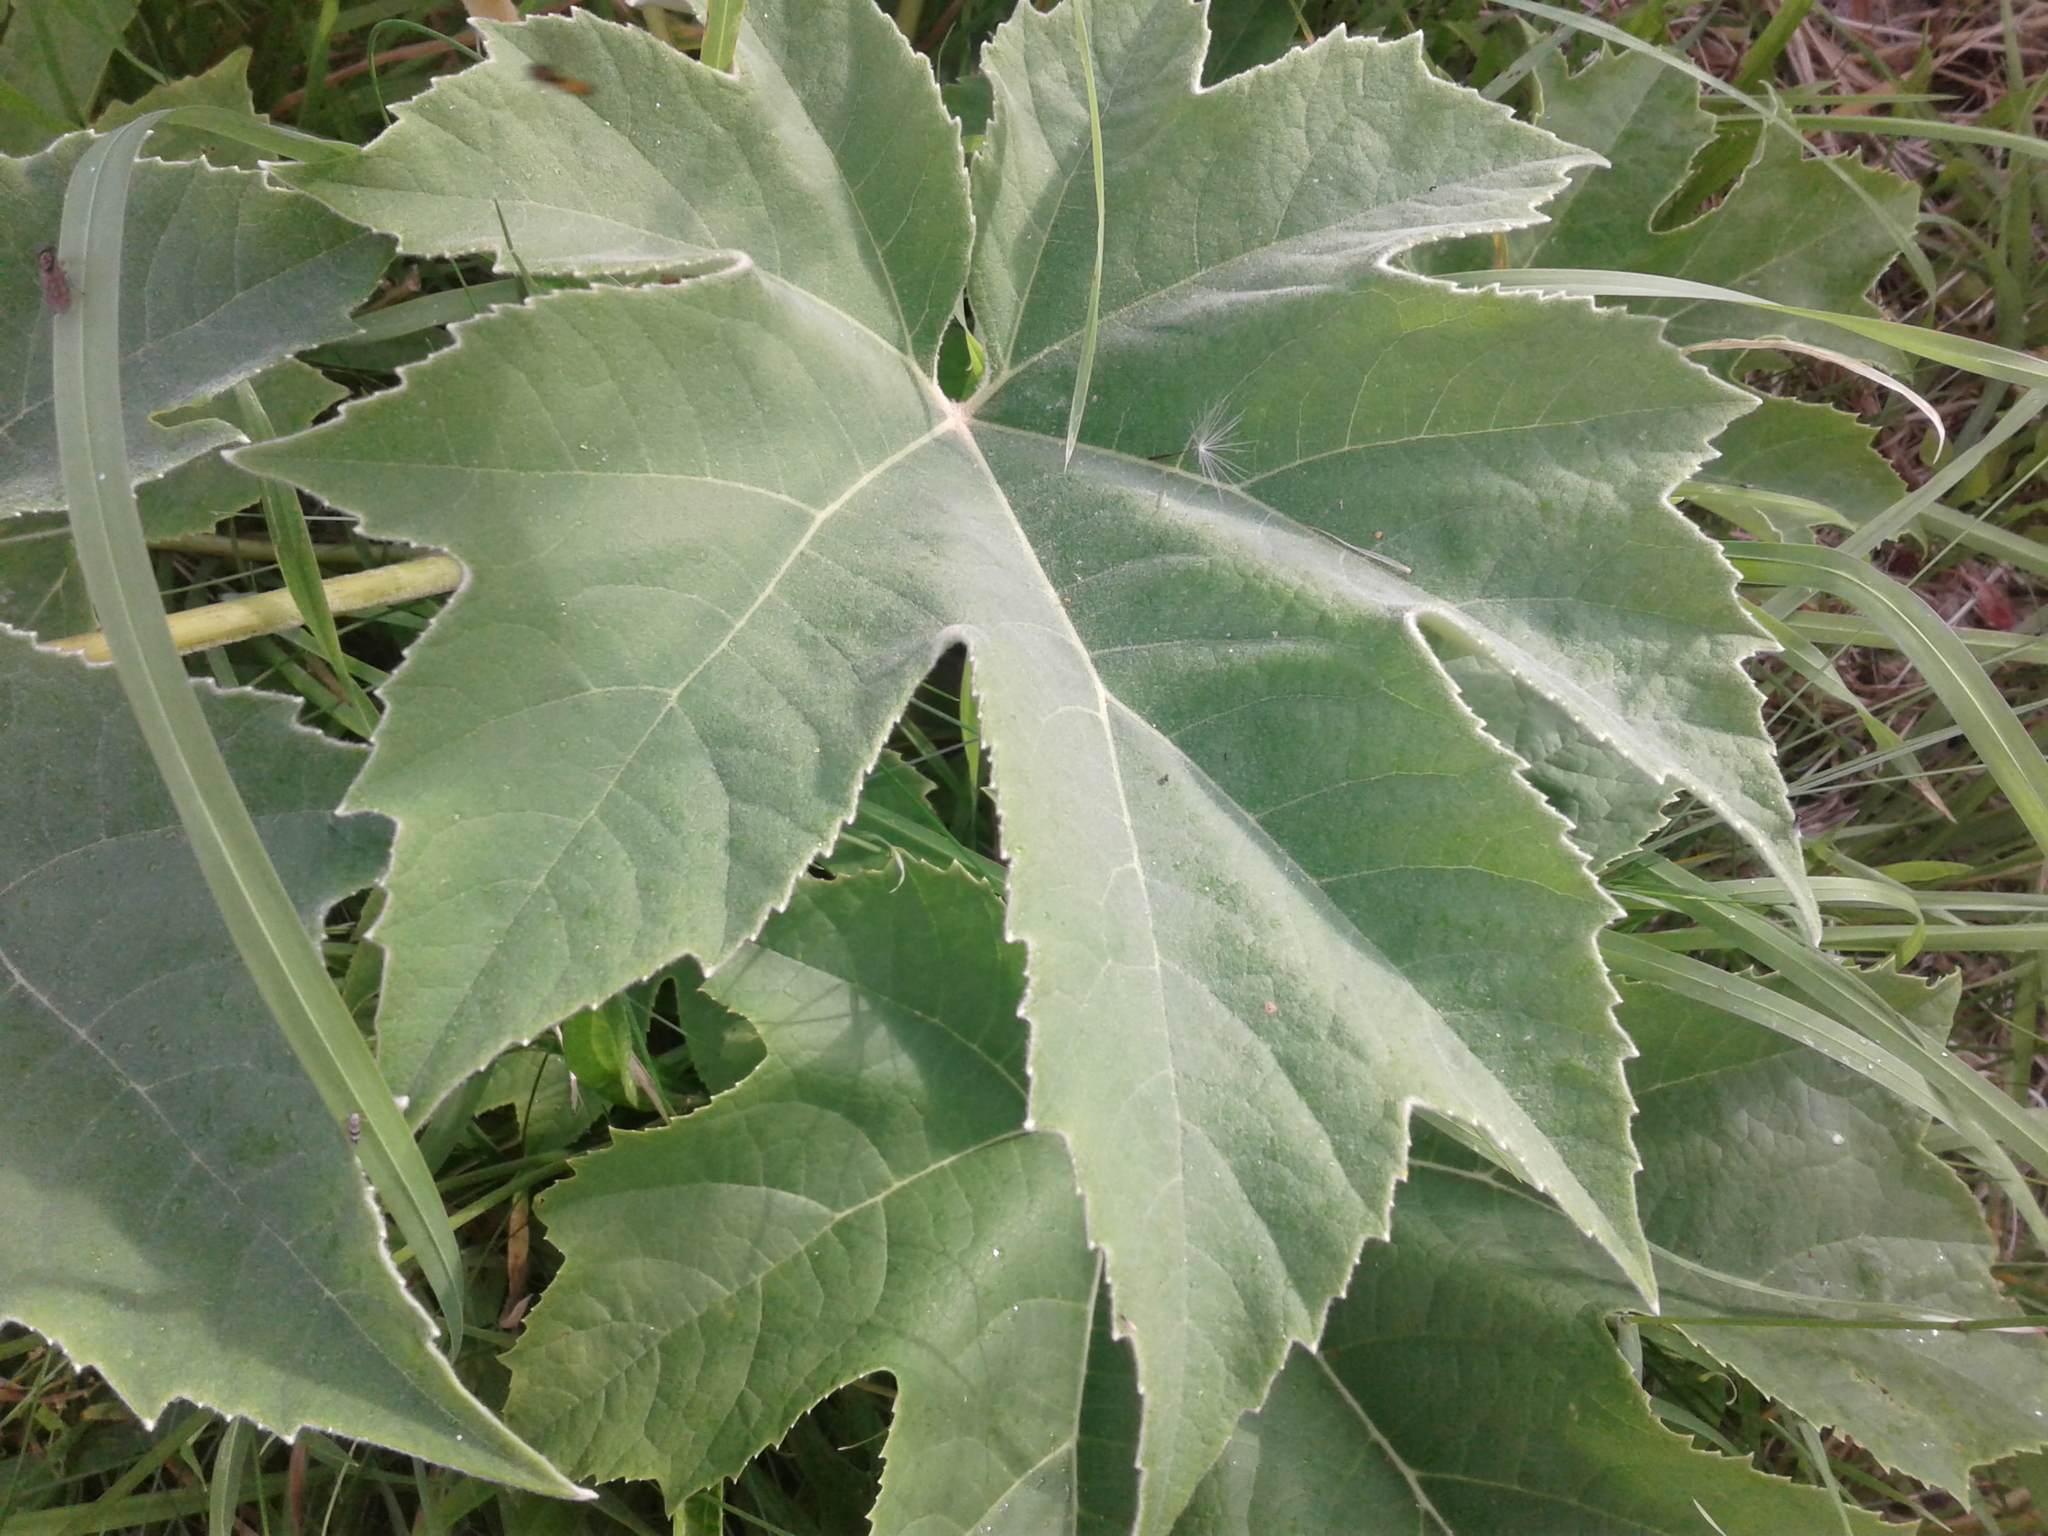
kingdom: Plantae
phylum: Tracheophyta
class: Magnoliopsida
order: Apiales
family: Araliaceae
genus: Tetrapanax
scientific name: Tetrapanax papyrifer
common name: Rice-paper plant
